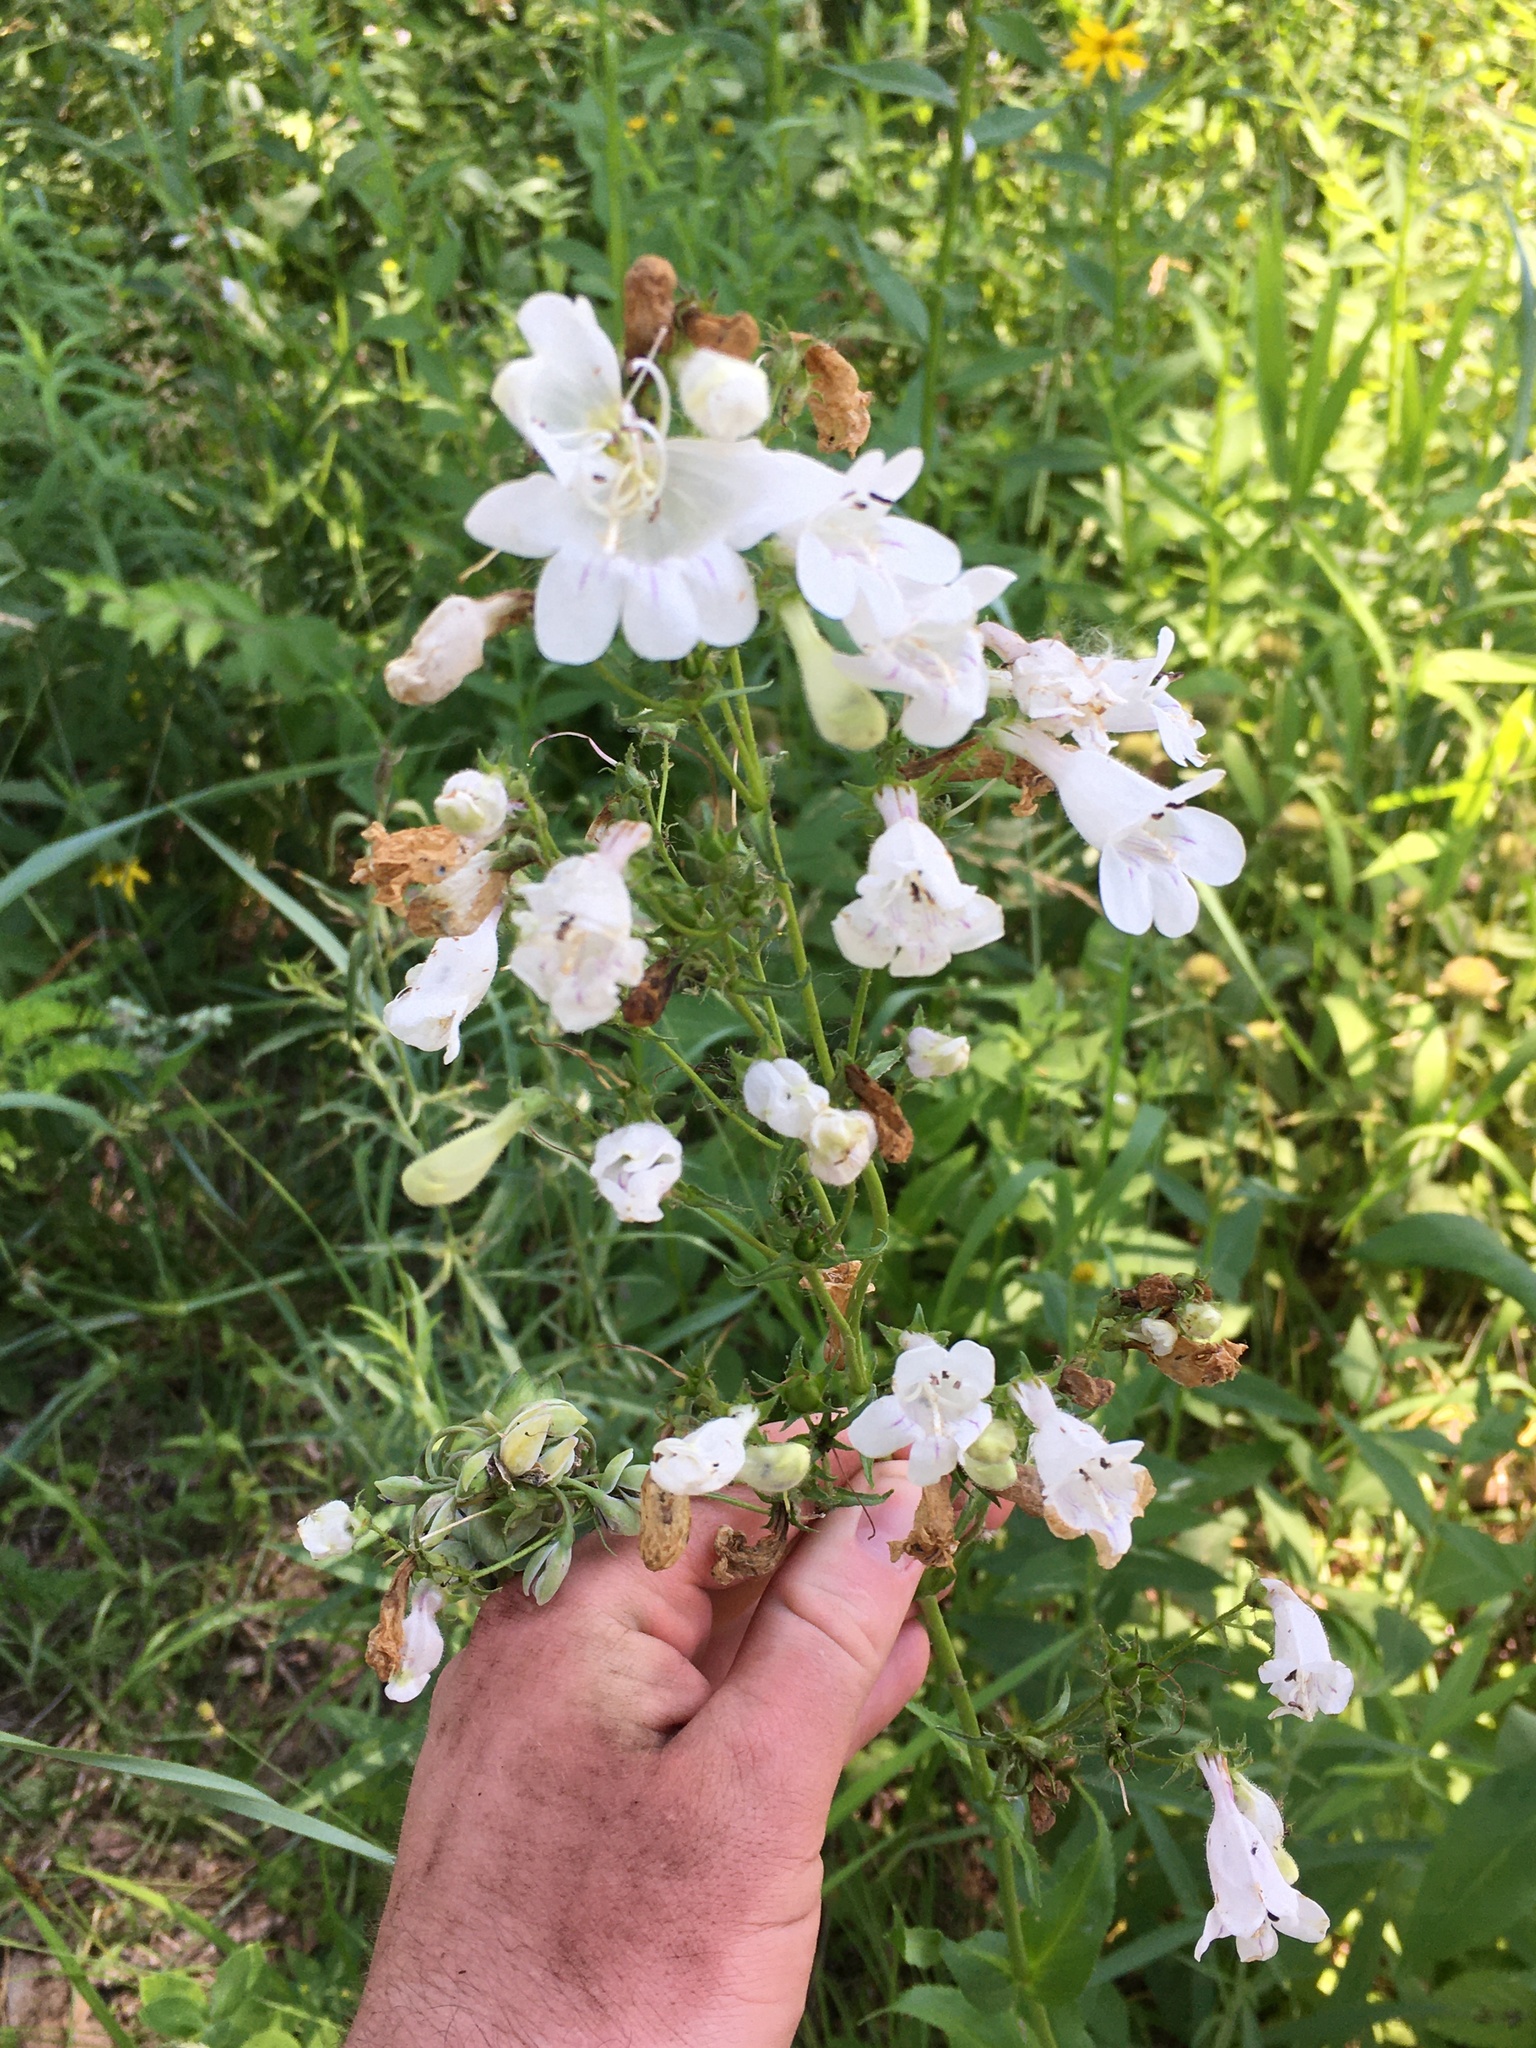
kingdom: Plantae
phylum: Tracheophyta
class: Magnoliopsida
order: Lamiales
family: Plantaginaceae
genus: Penstemon
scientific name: Penstemon digitalis
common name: Foxglove beardtongue
